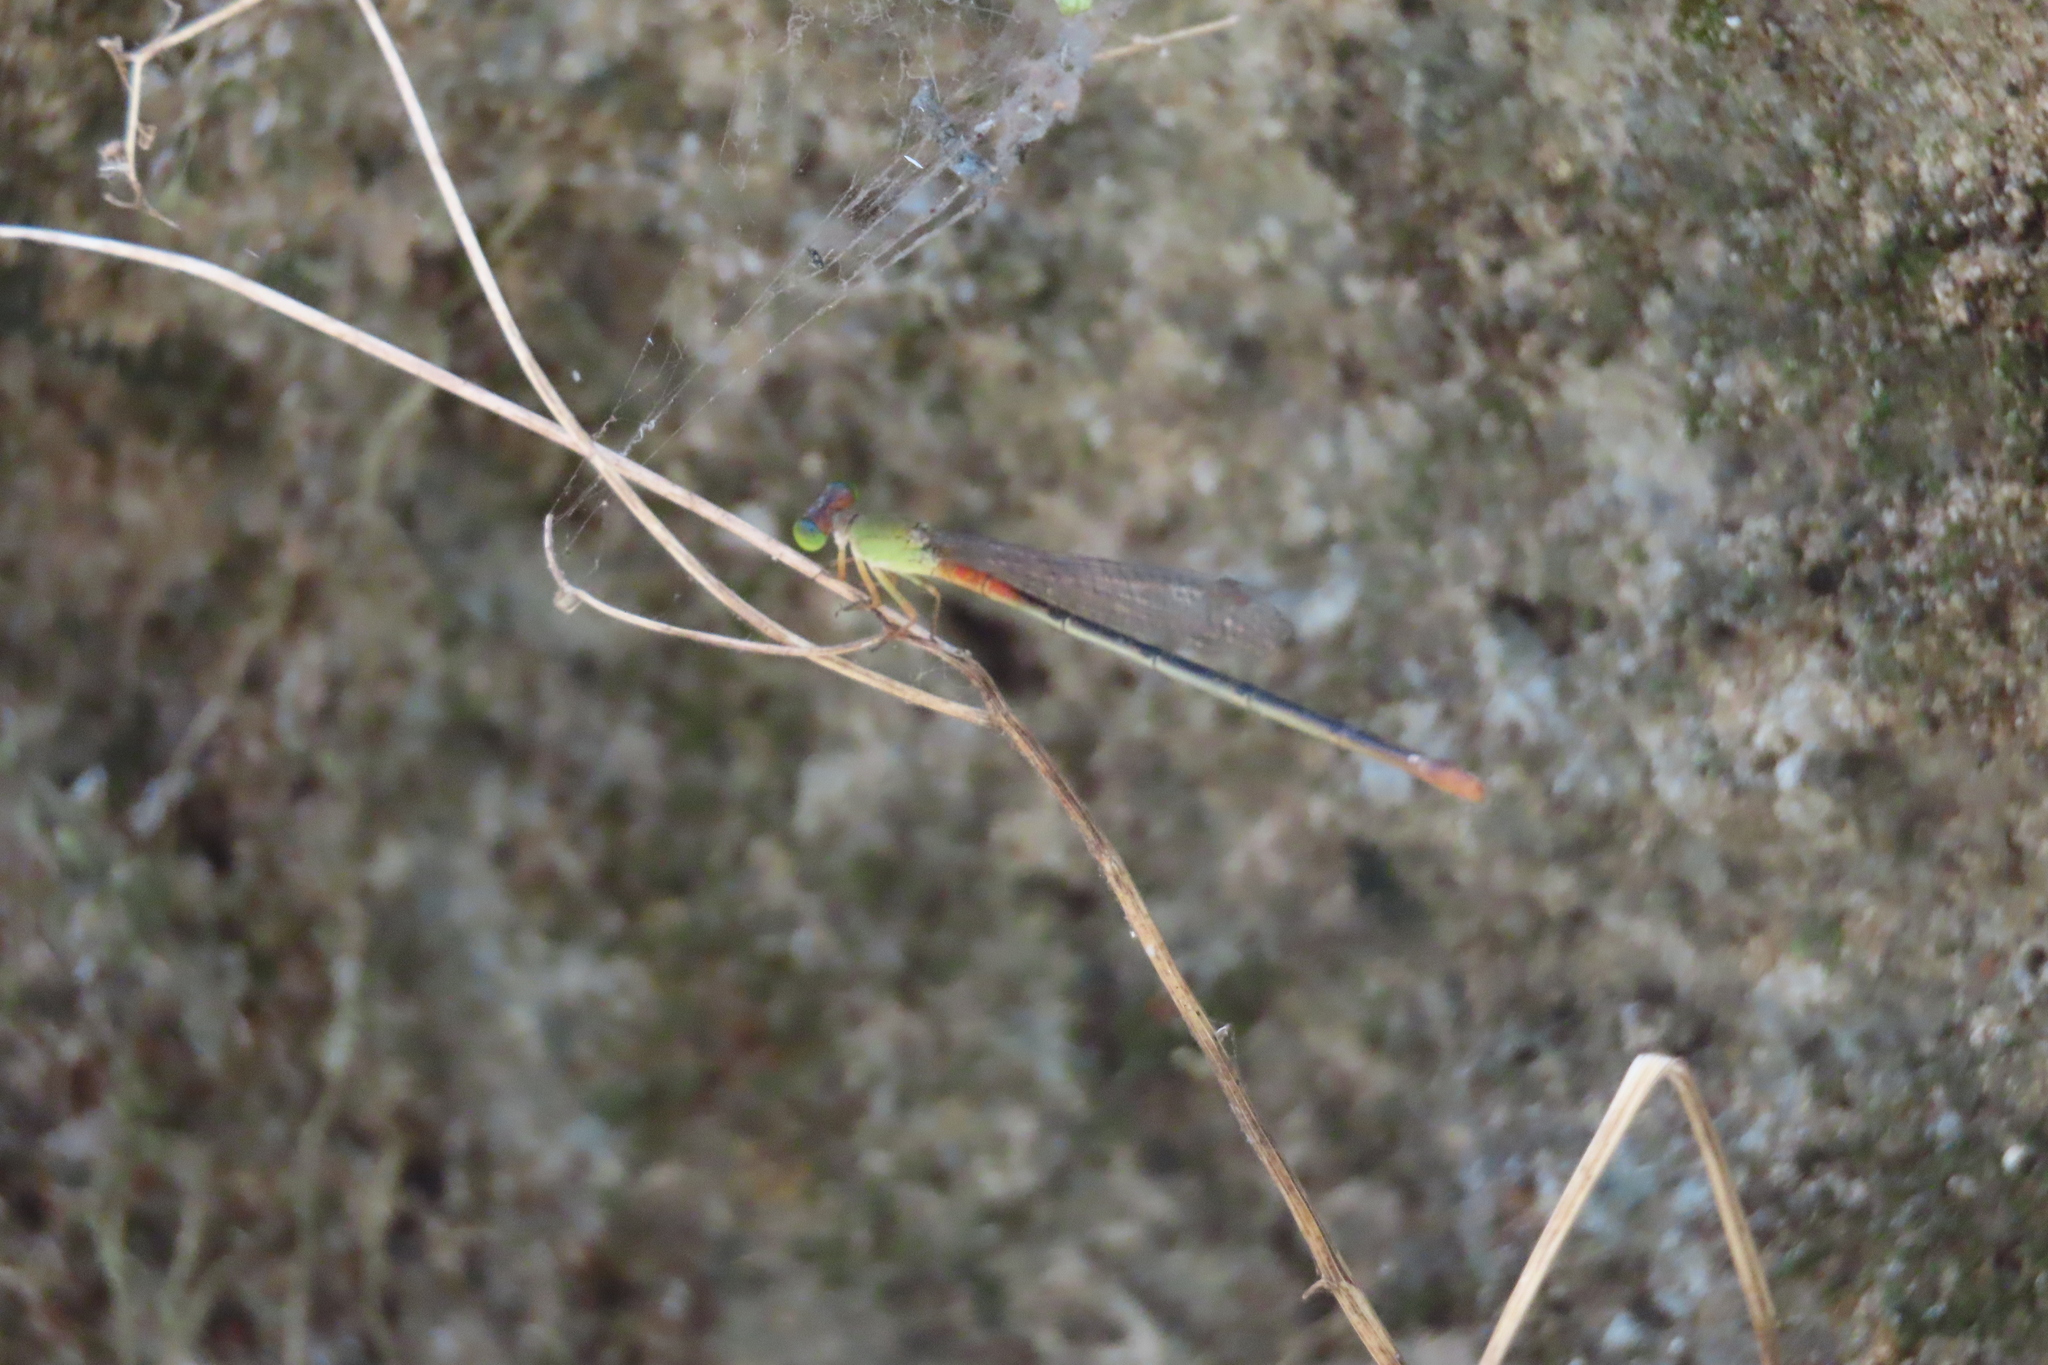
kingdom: Animalia
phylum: Arthropoda
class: Insecta
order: Odonata
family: Coenagrionidae
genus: Ceriagrion
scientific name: Ceriagrion cerinorubellum
